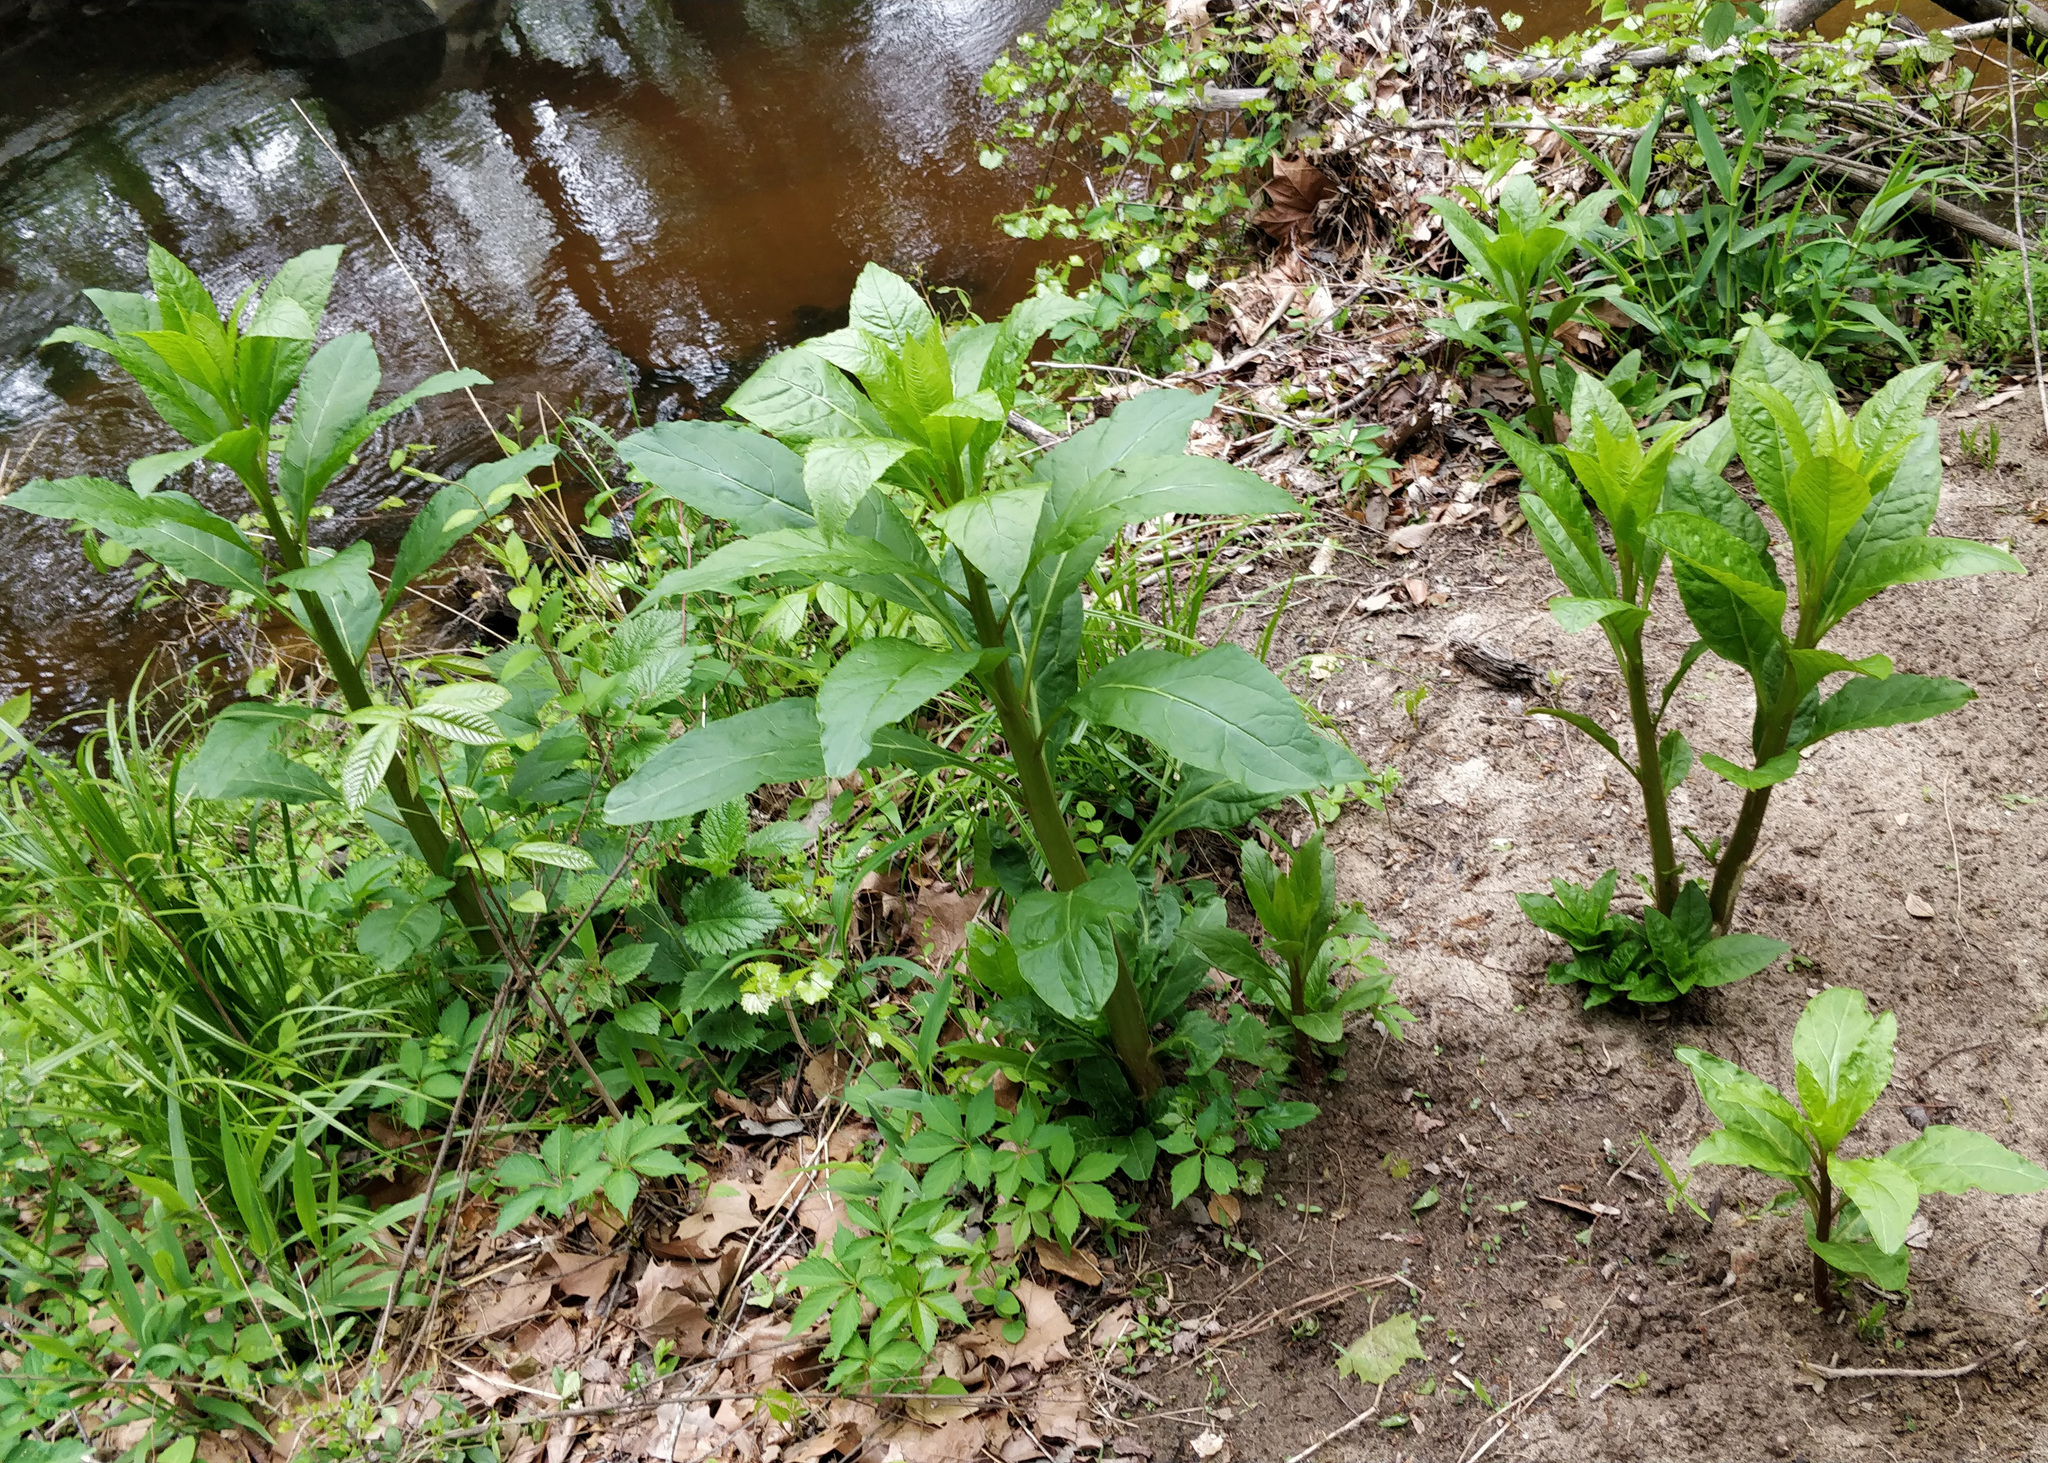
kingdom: Plantae
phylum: Tracheophyta
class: Magnoliopsida
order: Caryophyllales
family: Phytolaccaceae
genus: Phytolacca
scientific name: Phytolacca americana
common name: American pokeweed
